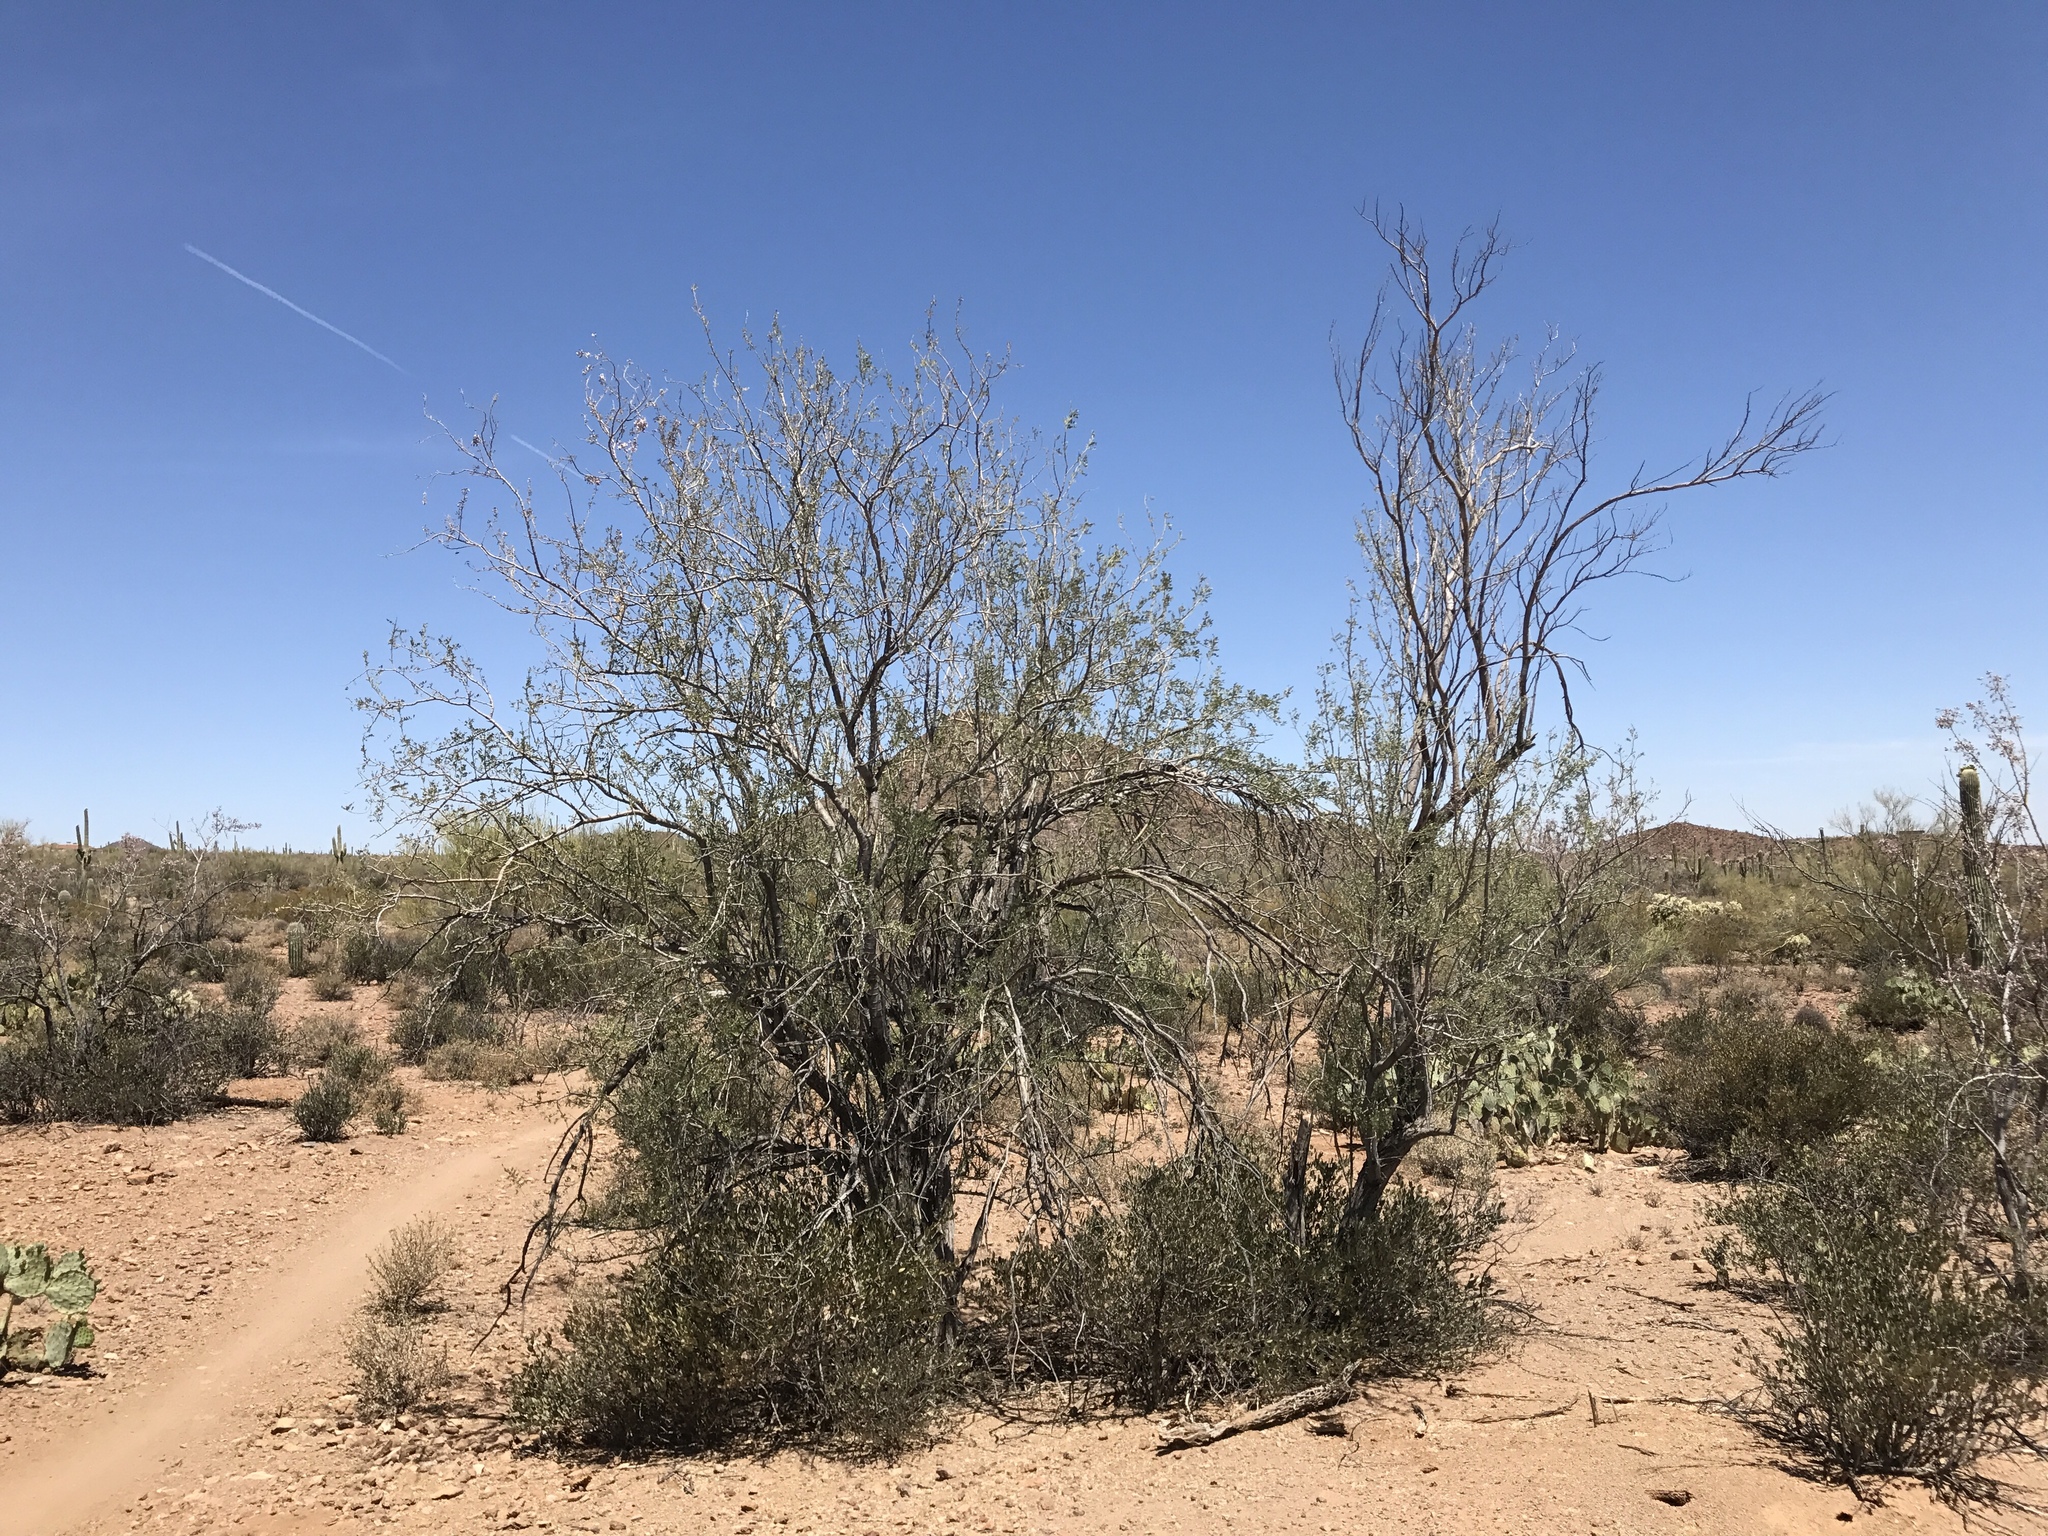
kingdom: Plantae
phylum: Tracheophyta
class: Magnoliopsida
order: Fabales
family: Fabaceae
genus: Olneya
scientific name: Olneya tesota
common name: Desert ironwood
